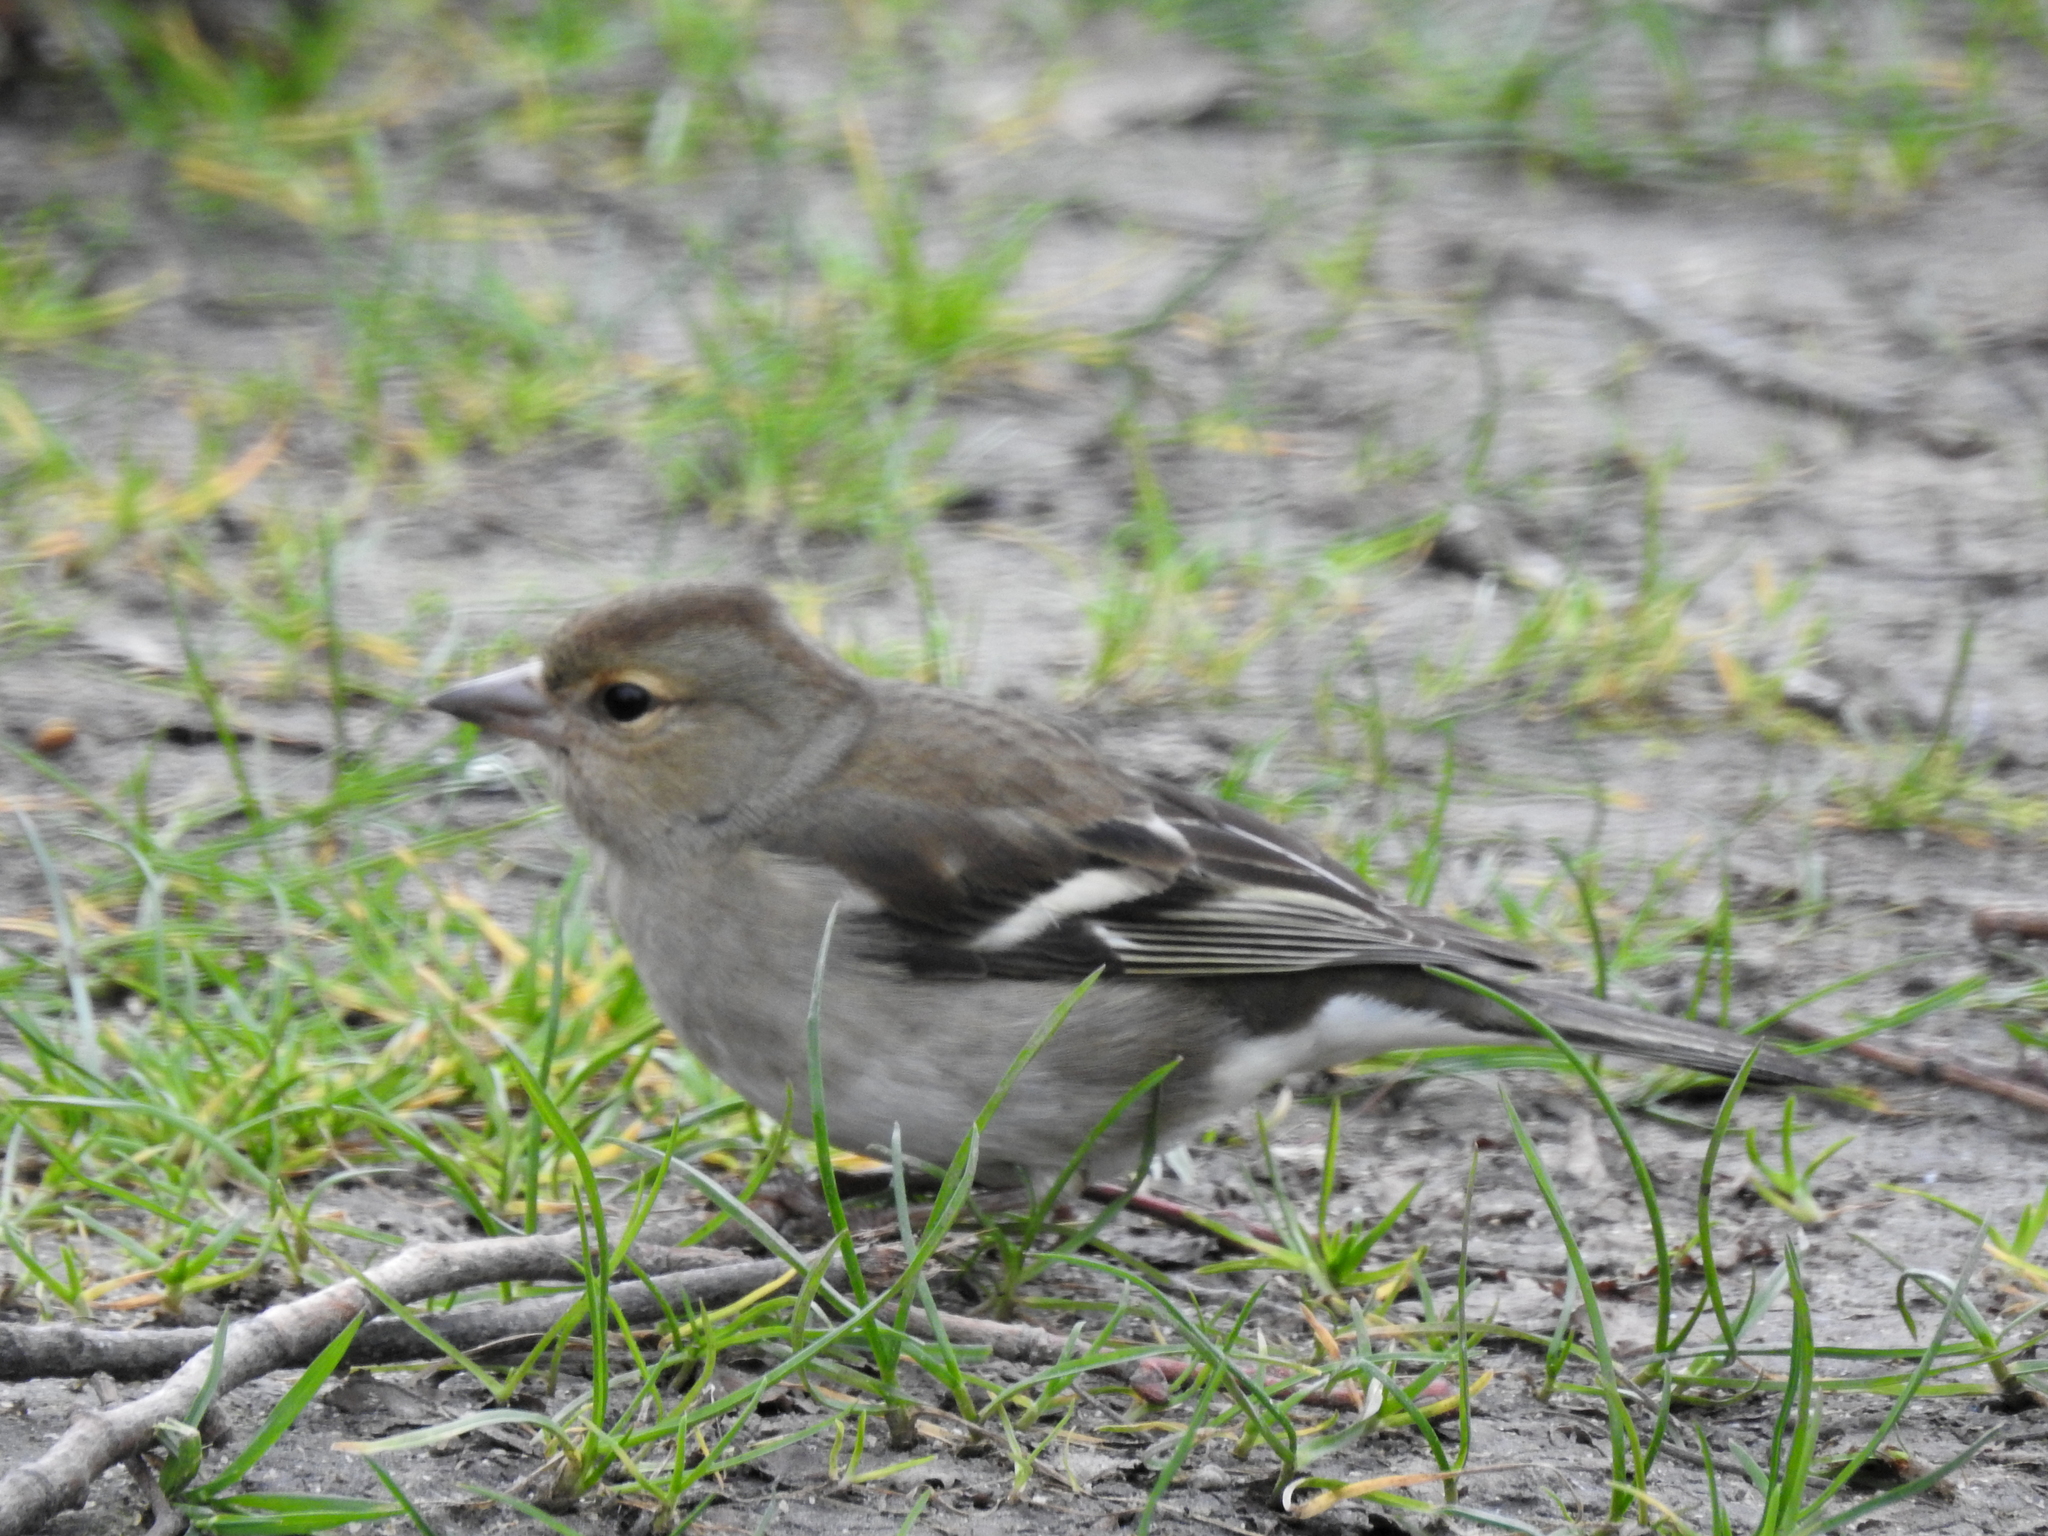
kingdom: Animalia
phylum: Chordata
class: Aves
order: Passeriformes
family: Fringillidae
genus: Fringilla
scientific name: Fringilla coelebs
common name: Common chaffinch
